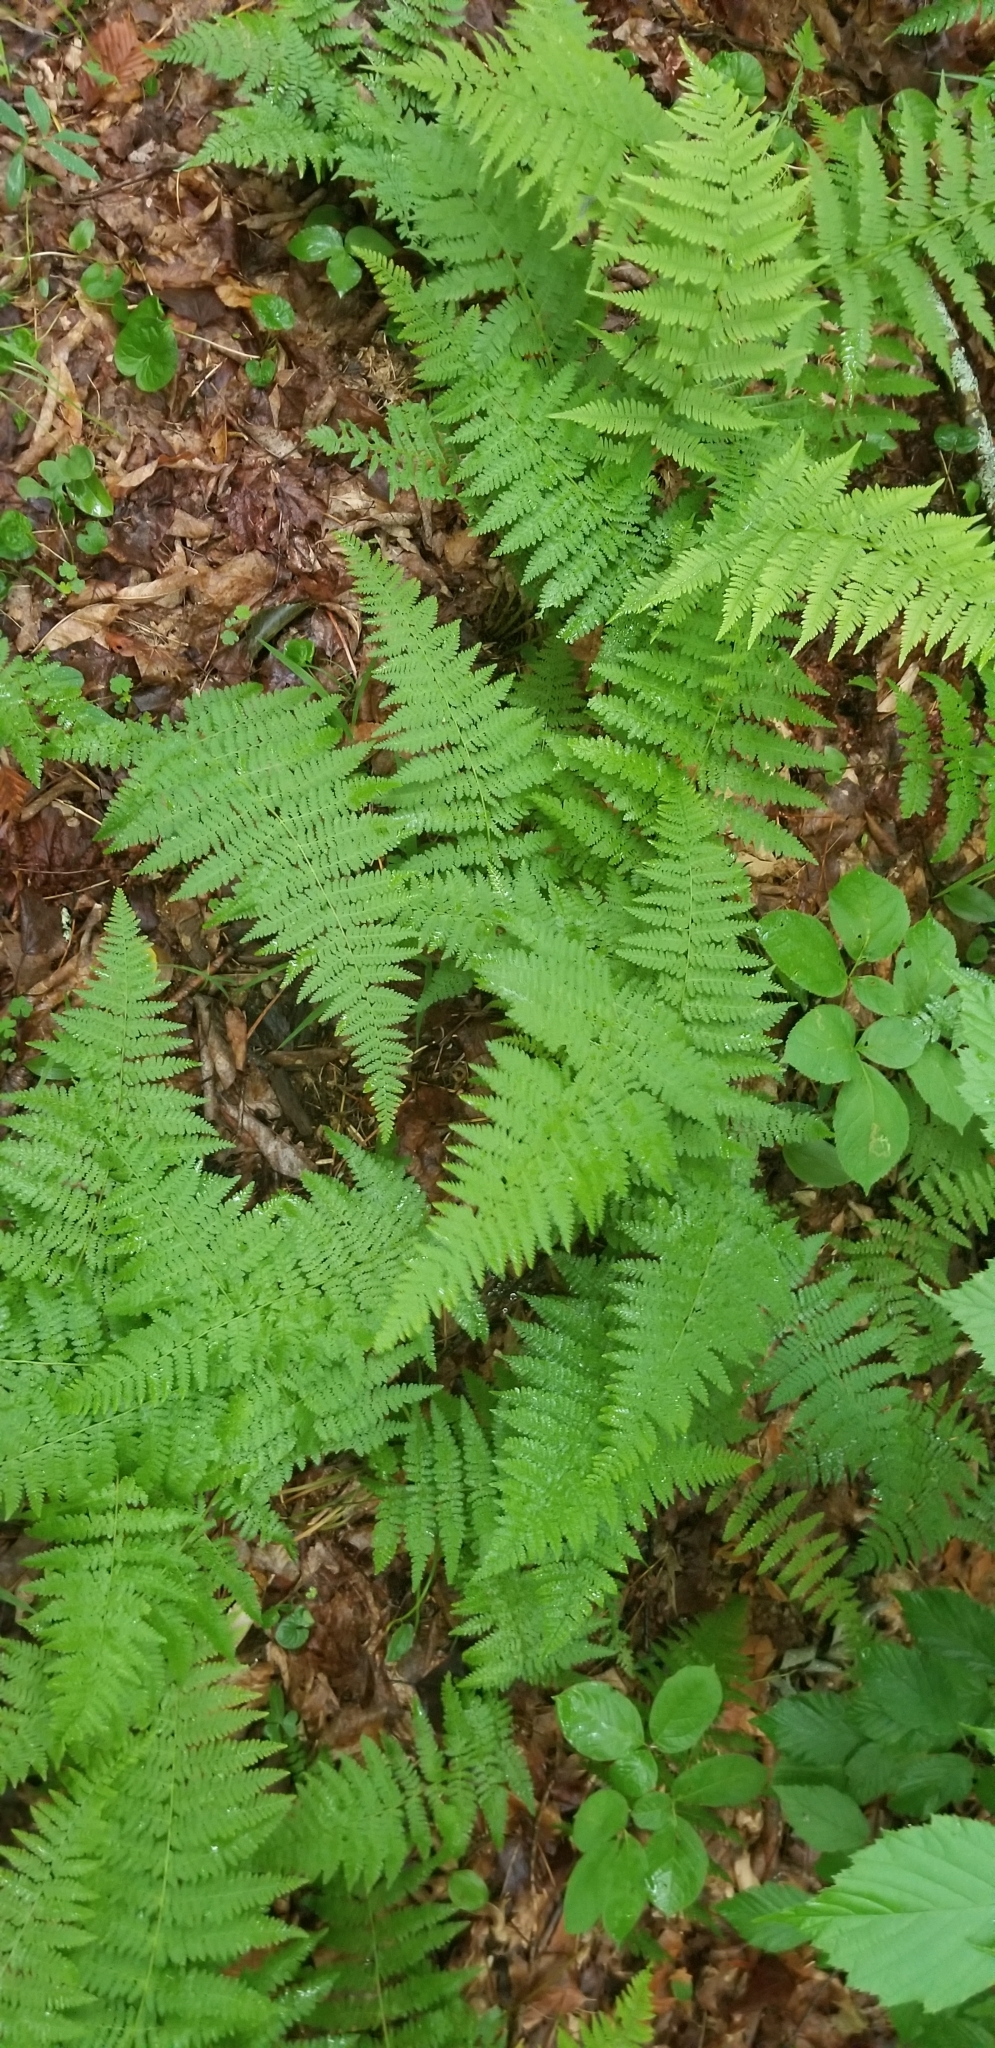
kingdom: Plantae
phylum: Tracheophyta
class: Polypodiopsida
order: Polypodiales
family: Dennstaedtiaceae
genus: Sitobolium
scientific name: Sitobolium punctilobum
